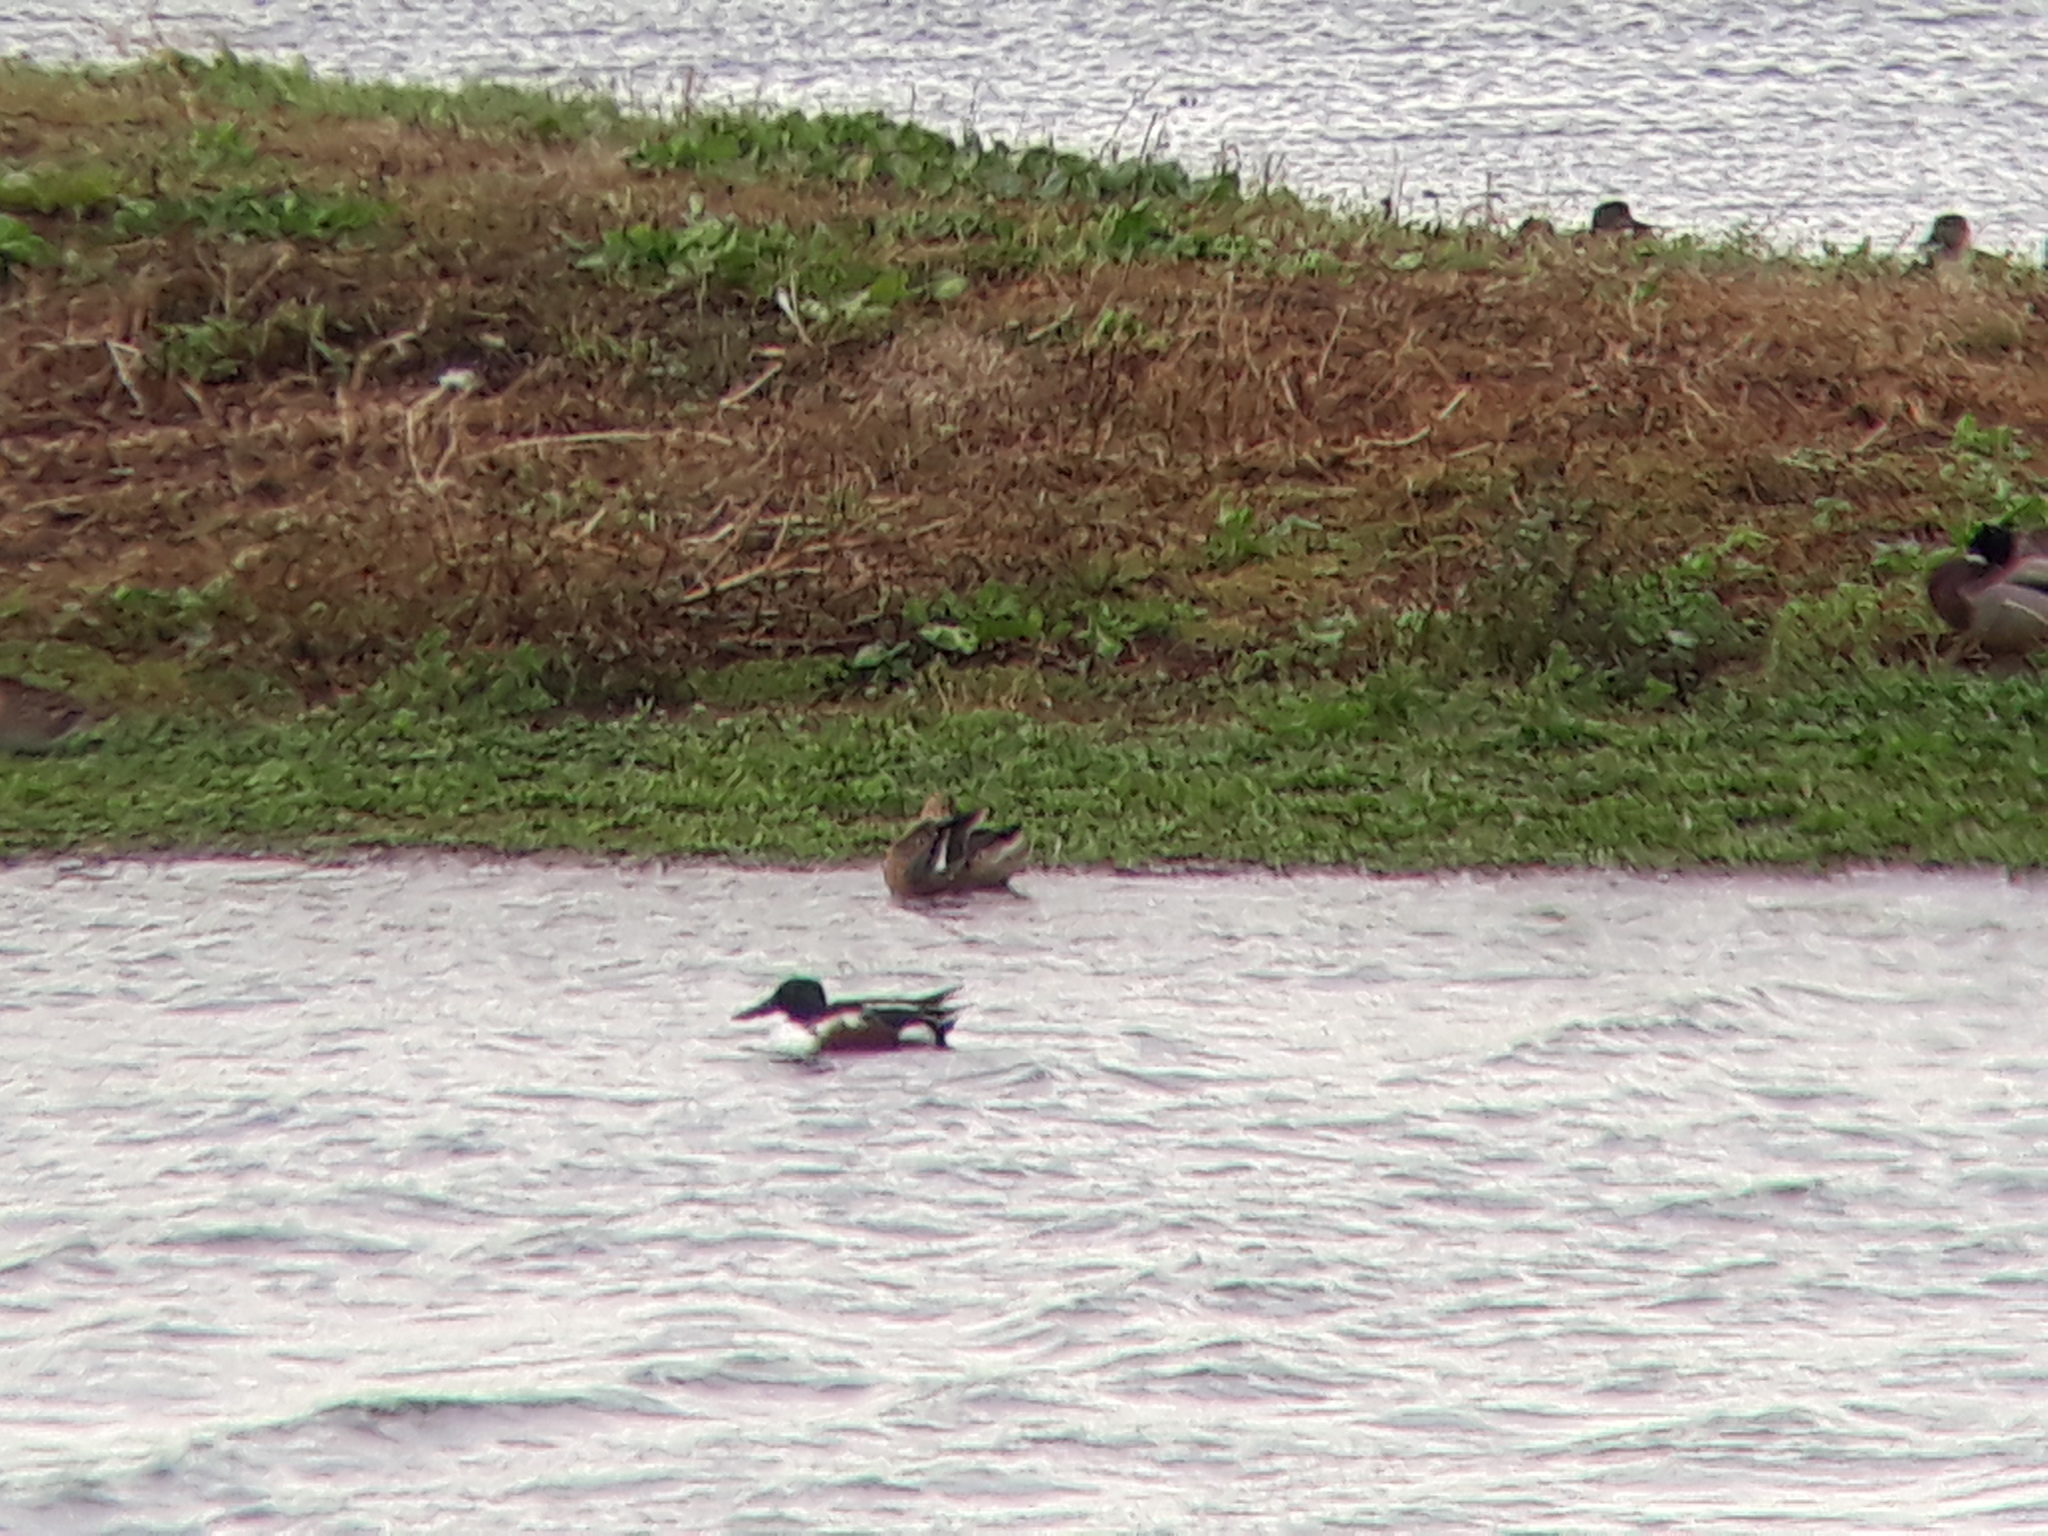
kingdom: Animalia
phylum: Chordata
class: Aves
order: Anseriformes
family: Anatidae
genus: Spatula
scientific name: Spatula clypeata
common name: Northern shoveler
